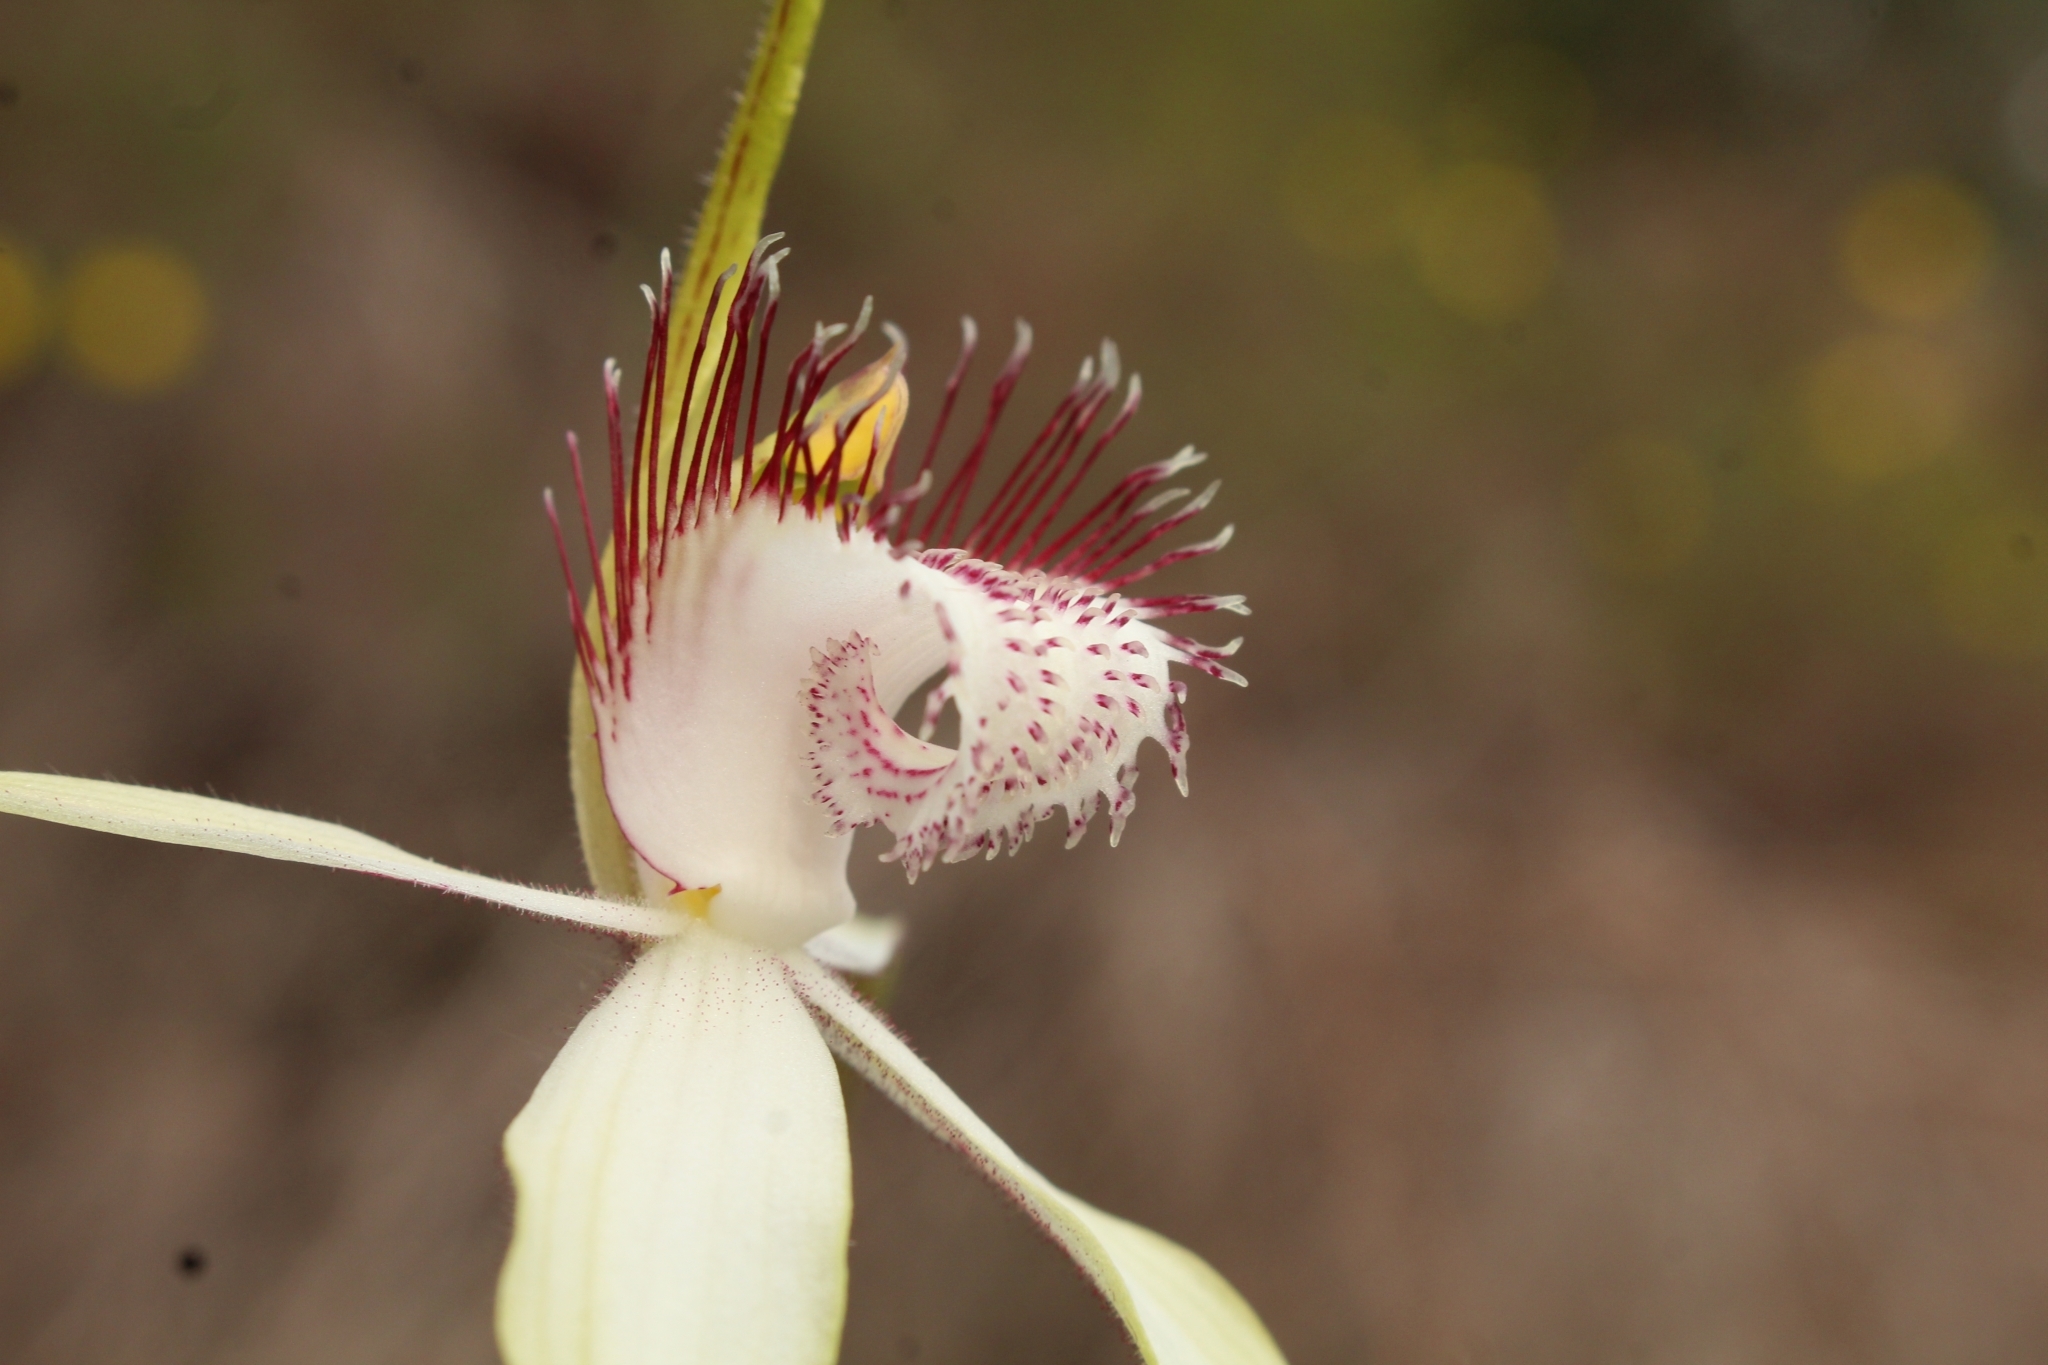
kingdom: Plantae
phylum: Tracheophyta
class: Liliopsida
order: Asparagales
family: Orchidaceae
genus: Caladenia
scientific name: Caladenia splendens
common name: Splendid spider orchid
